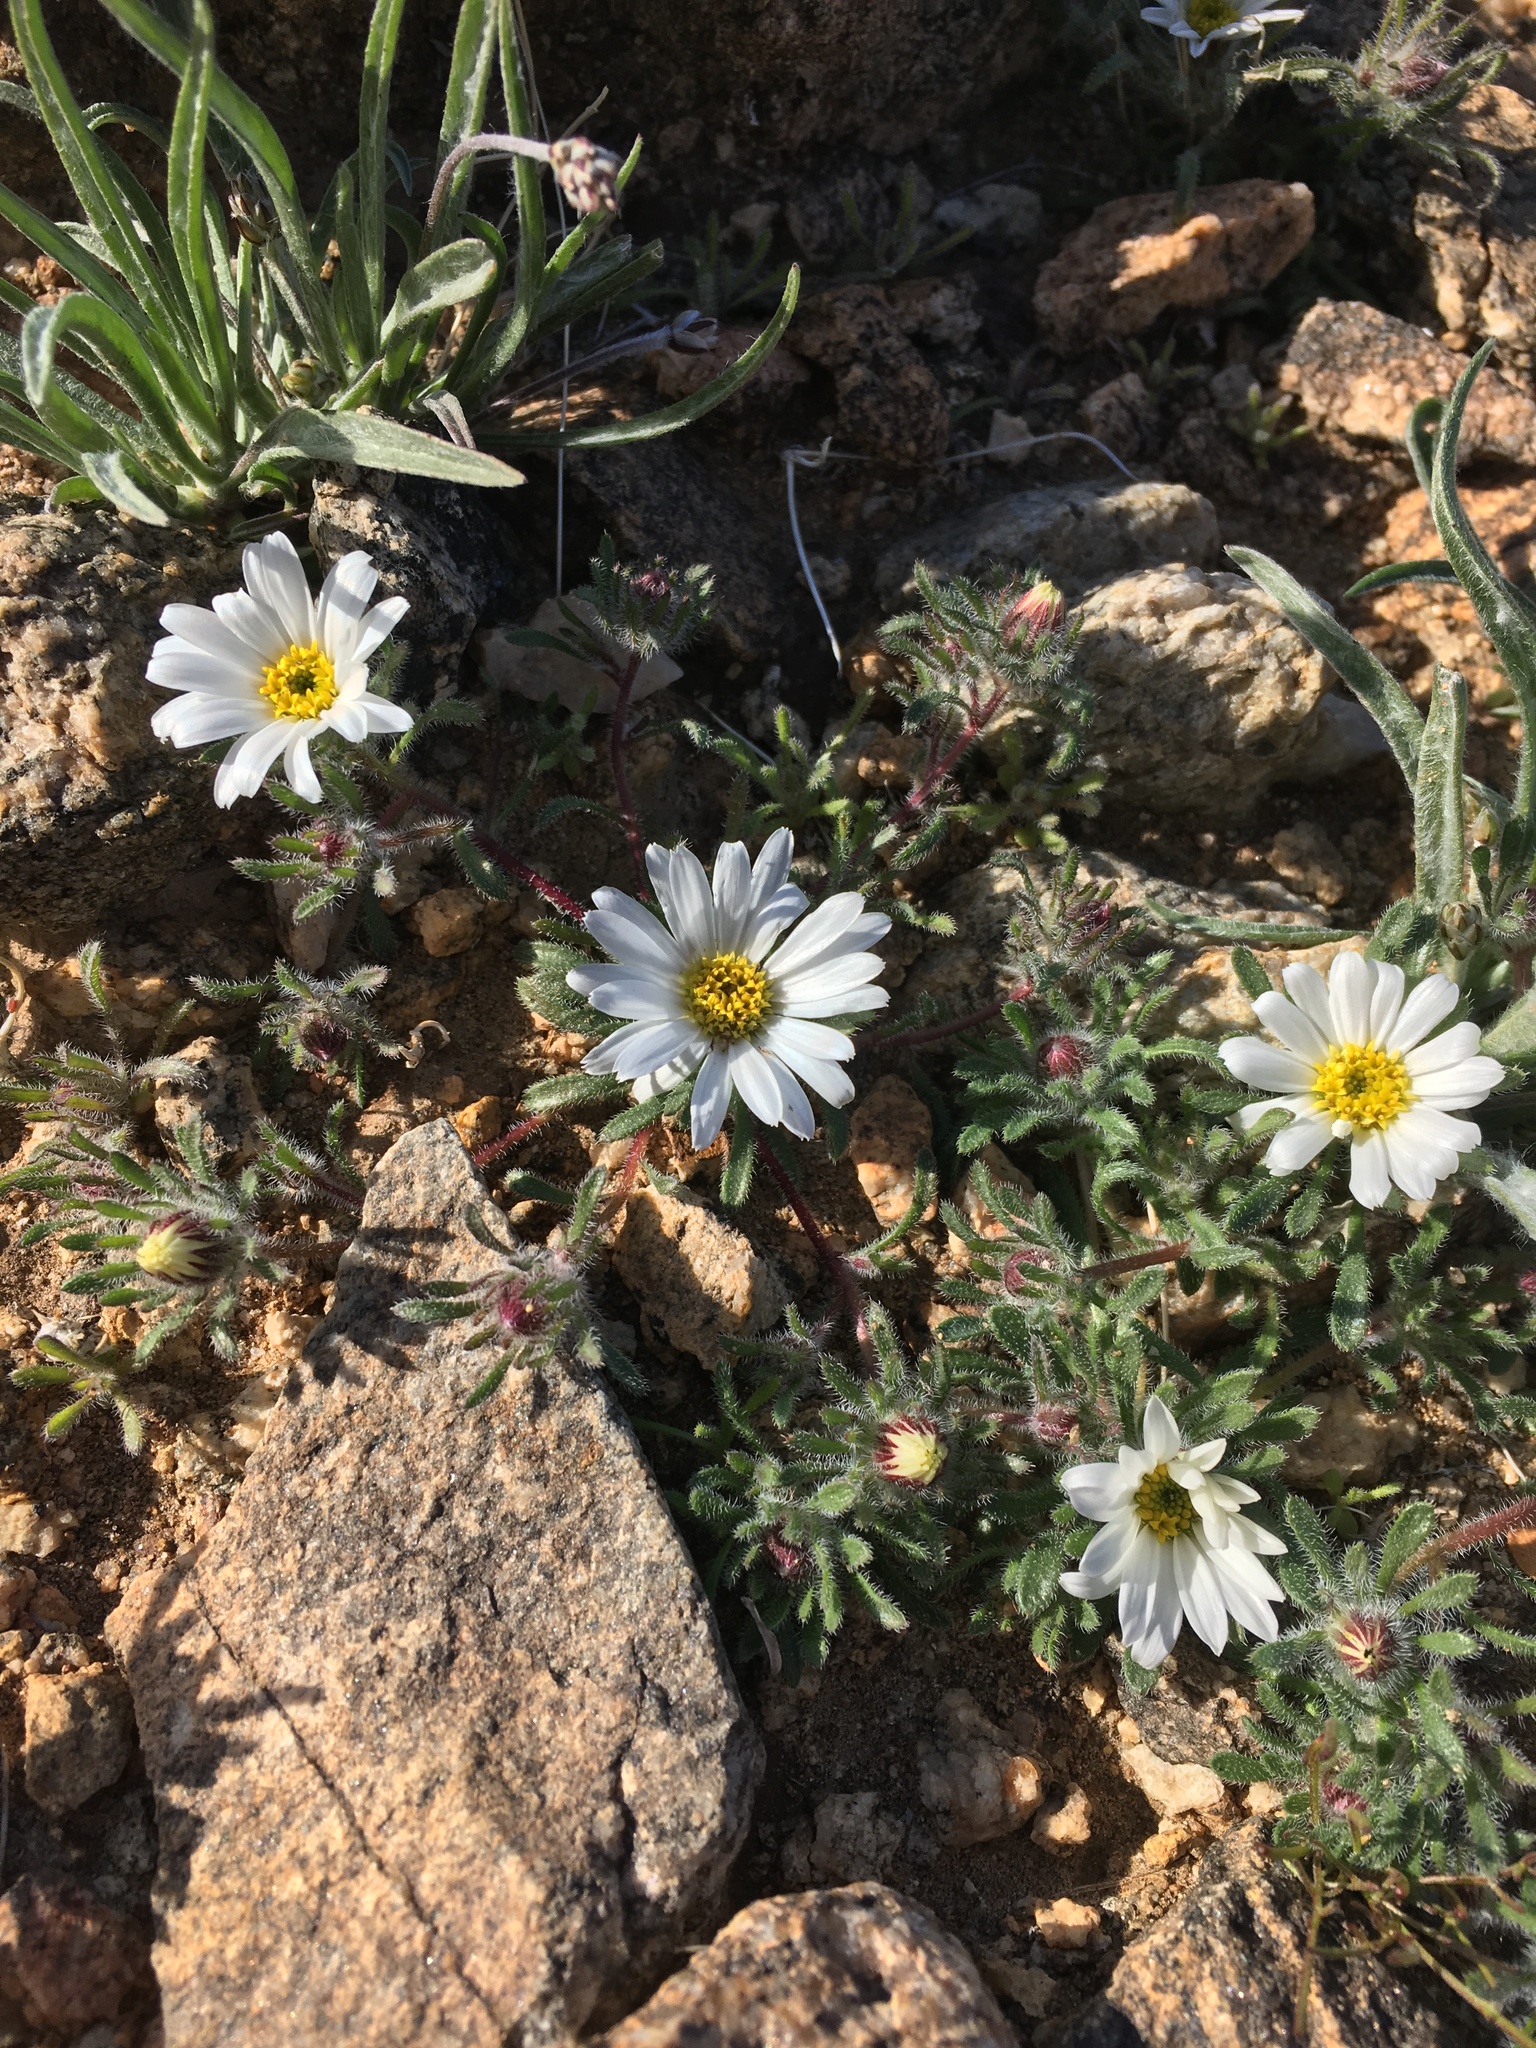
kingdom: Plantae
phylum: Tracheophyta
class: Magnoliopsida
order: Asterales
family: Asteraceae
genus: Monoptilon
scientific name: Monoptilon bellioides
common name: Bristly desertstar
